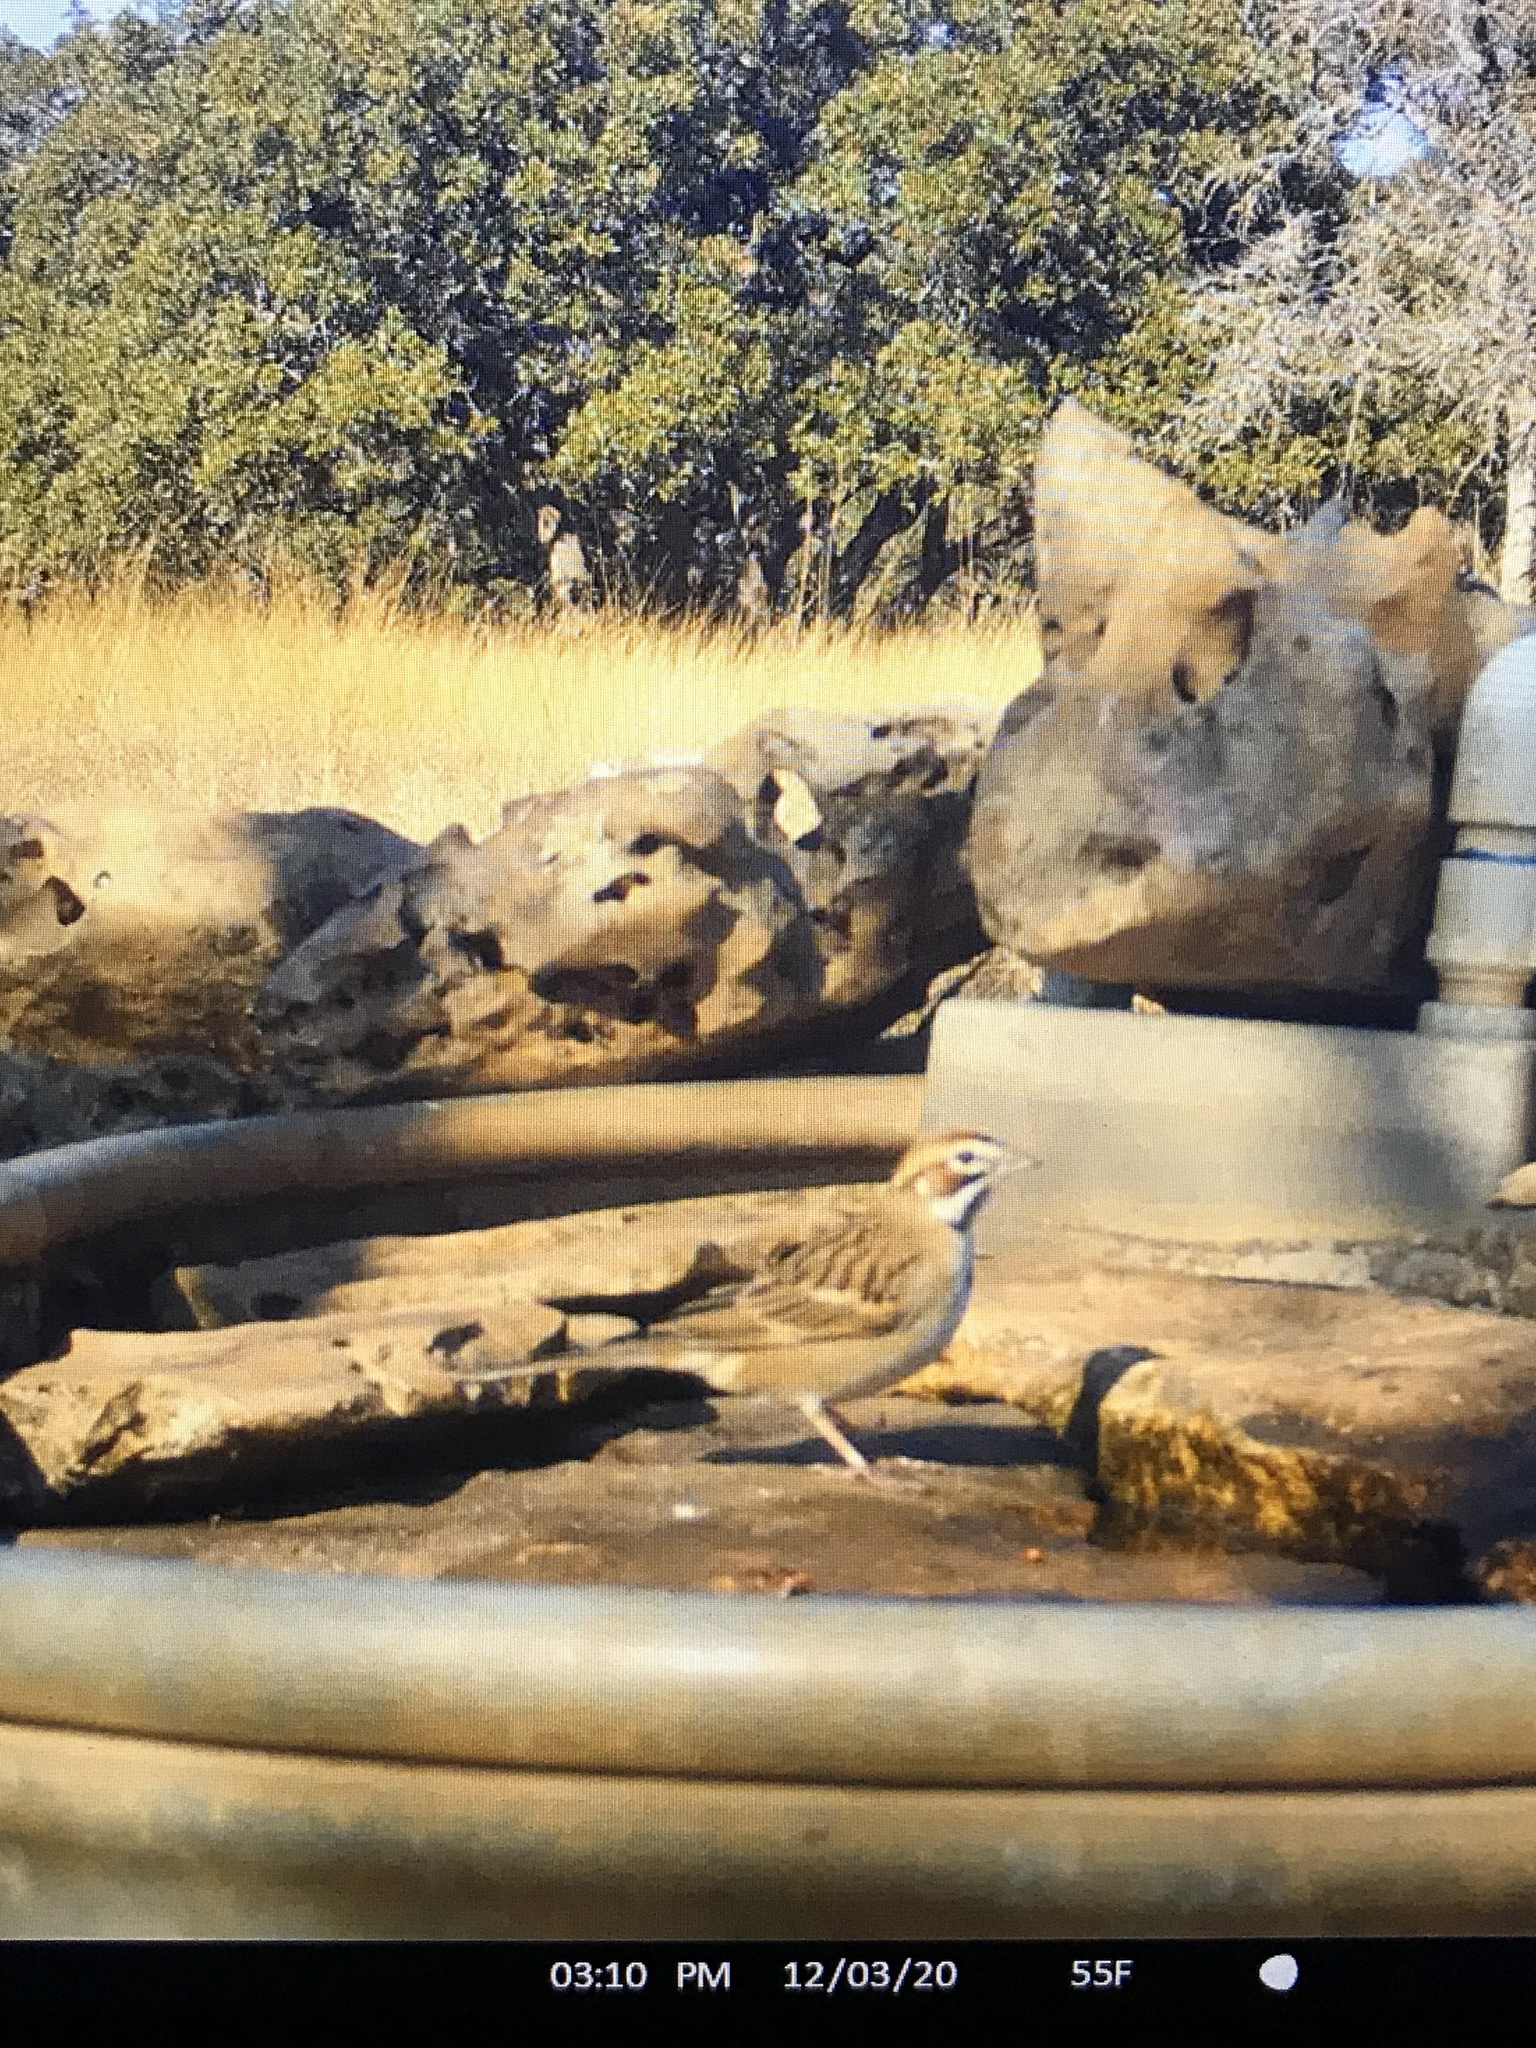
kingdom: Animalia
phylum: Chordata
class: Aves
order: Passeriformes
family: Passerellidae
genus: Chondestes
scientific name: Chondestes grammacus
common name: Lark sparrow
